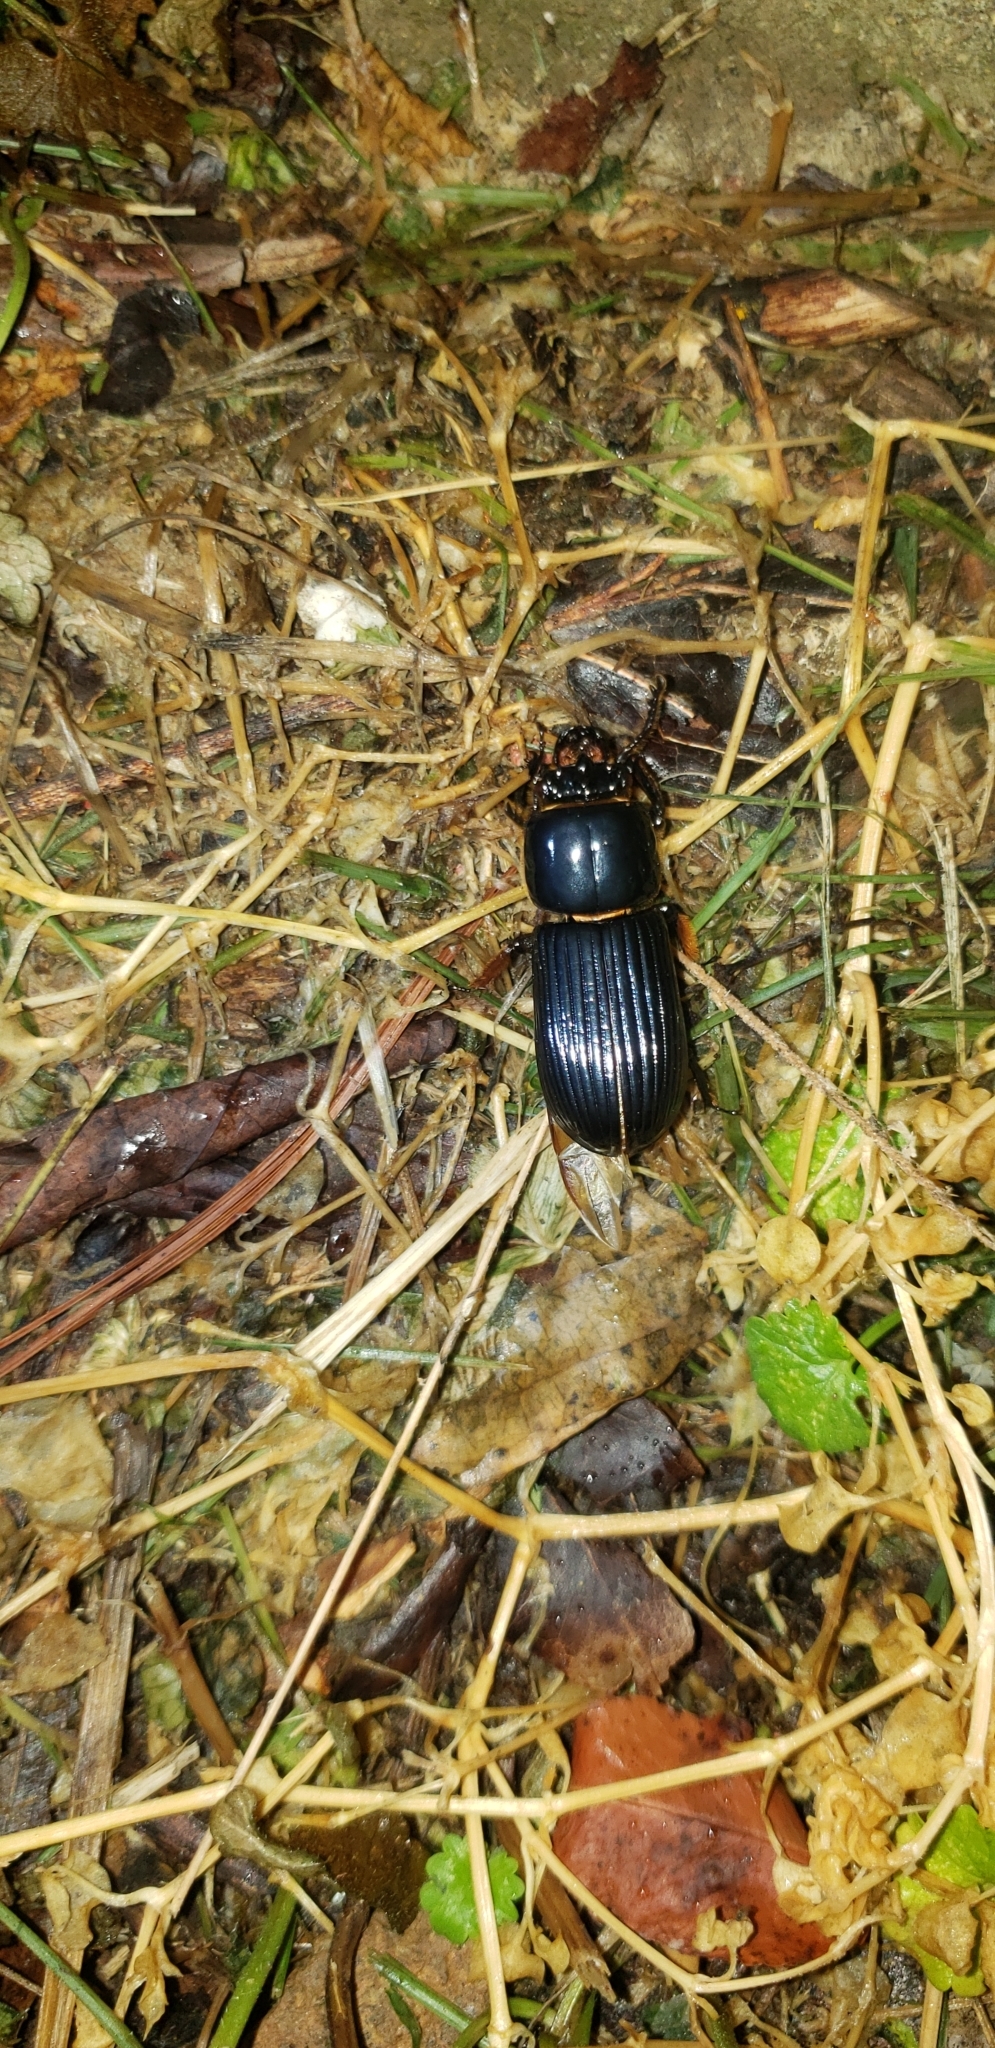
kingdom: Animalia
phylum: Arthropoda
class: Insecta
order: Coleoptera
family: Passalidae
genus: Odontotaenius
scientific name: Odontotaenius disjunctus
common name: Patent leather beetle
